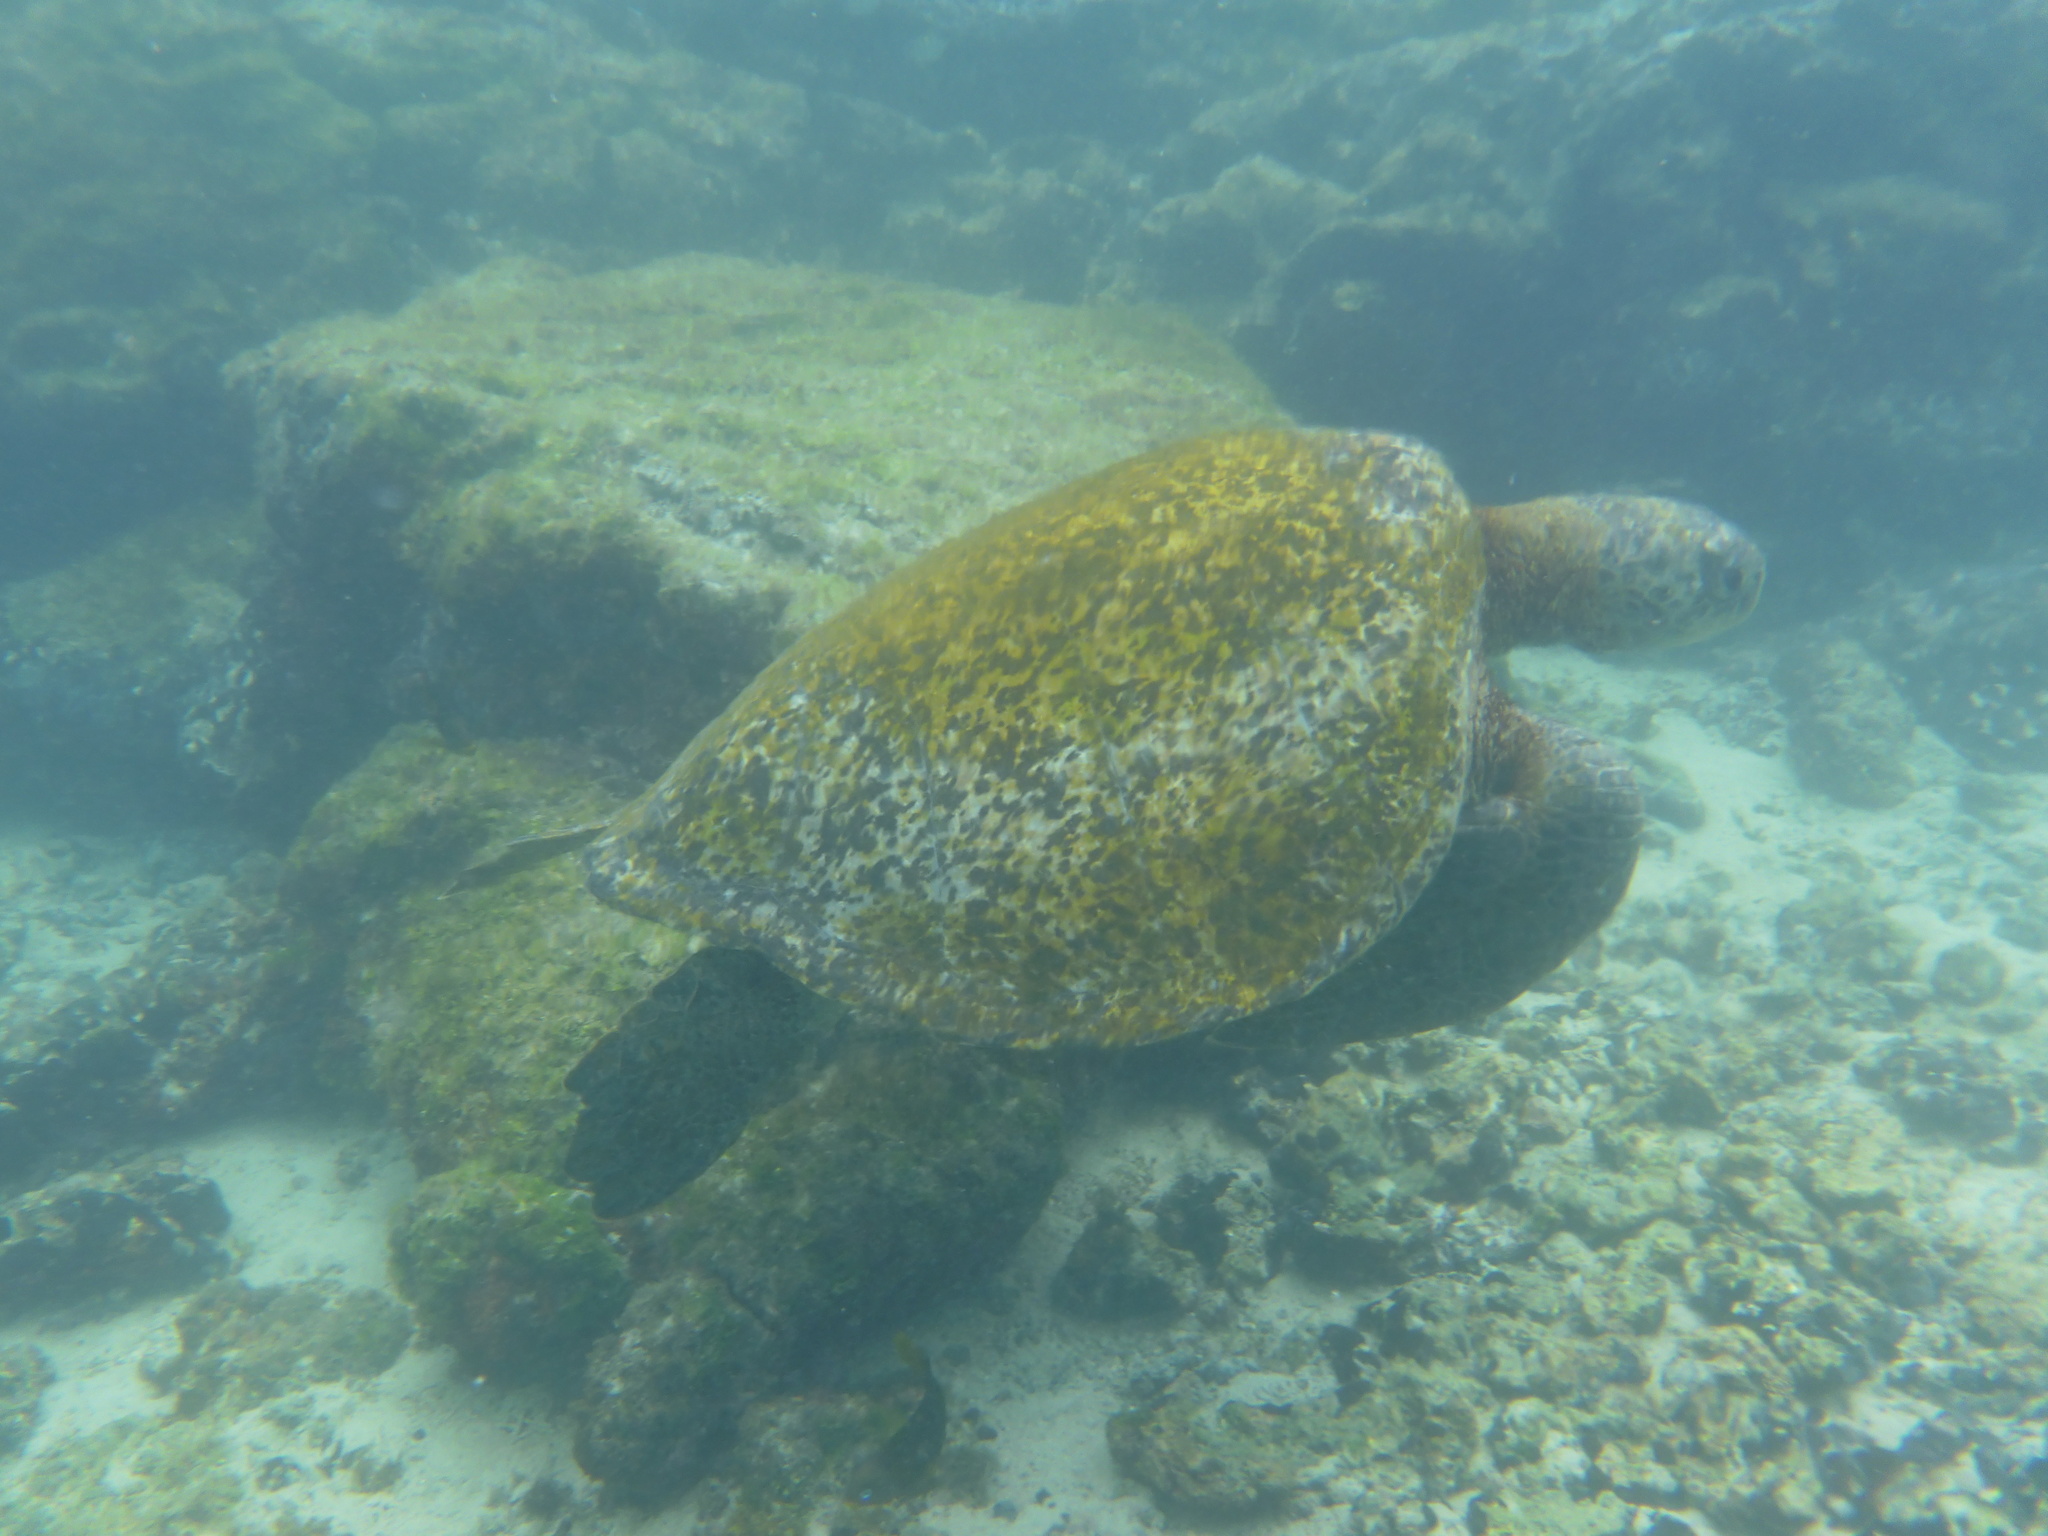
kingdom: Animalia
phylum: Chordata
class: Testudines
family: Cheloniidae
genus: Chelonia
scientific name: Chelonia mydas
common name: Green turtle
